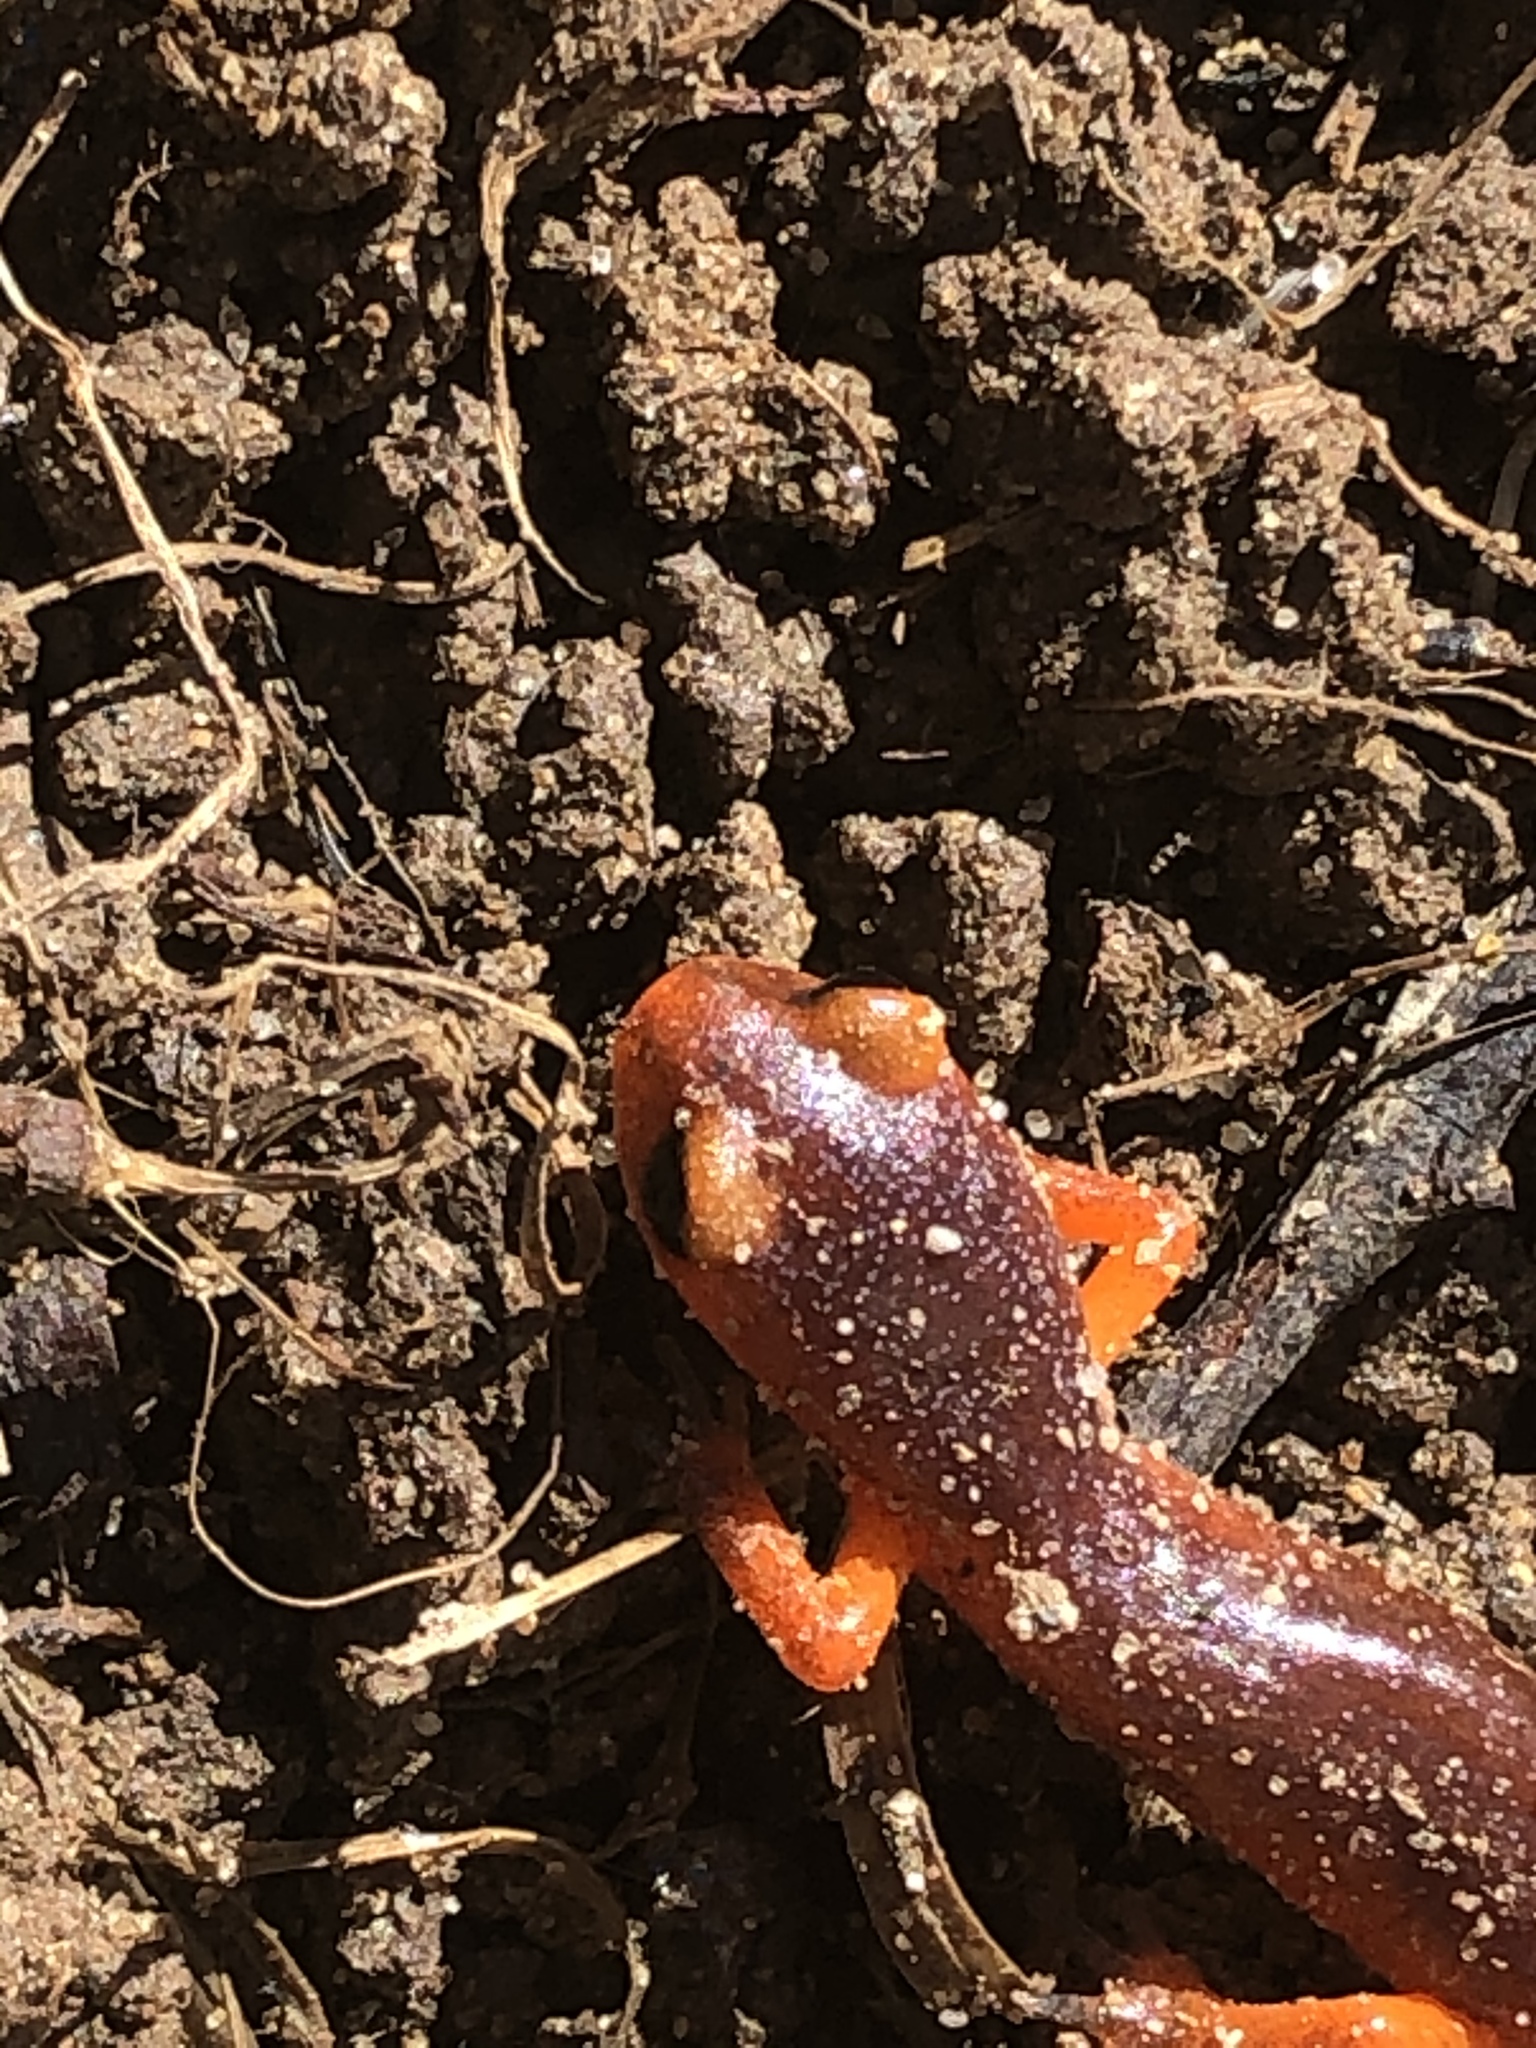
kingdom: Animalia
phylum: Chordata
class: Amphibia
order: Caudata
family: Plethodontidae
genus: Ensatina
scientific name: Ensatina eschscholtzii
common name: Ensatina
